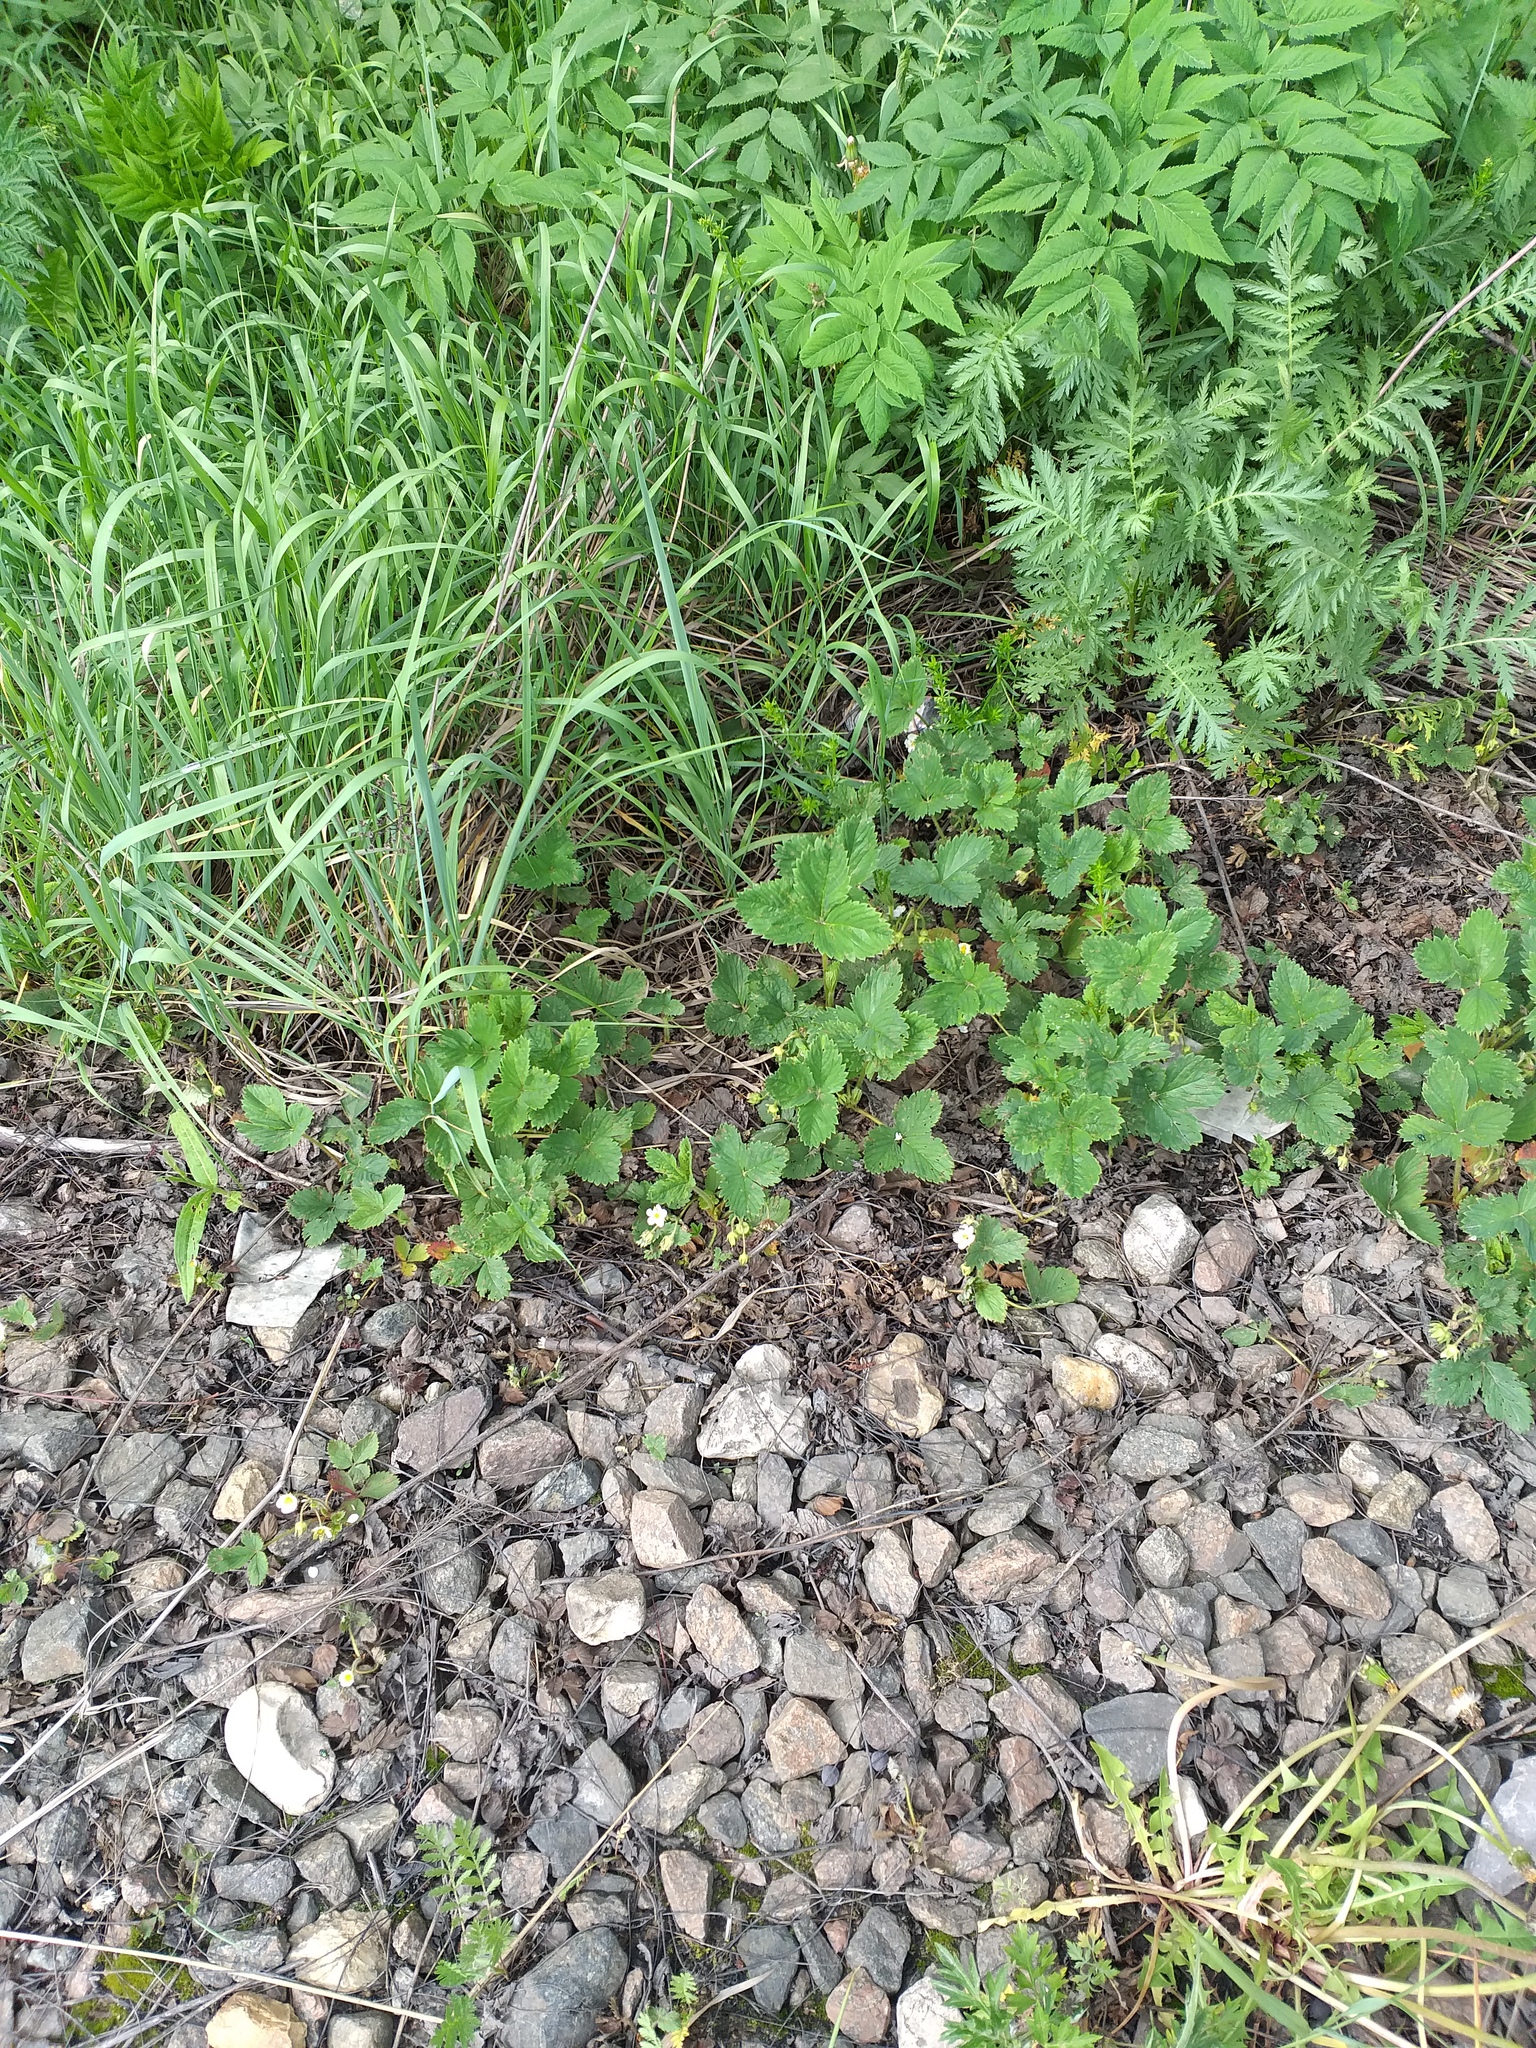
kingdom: Plantae
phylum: Tracheophyta
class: Magnoliopsida
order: Rosales
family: Rosaceae
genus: Fragaria
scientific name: Fragaria ananassa
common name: Garden strawberry
